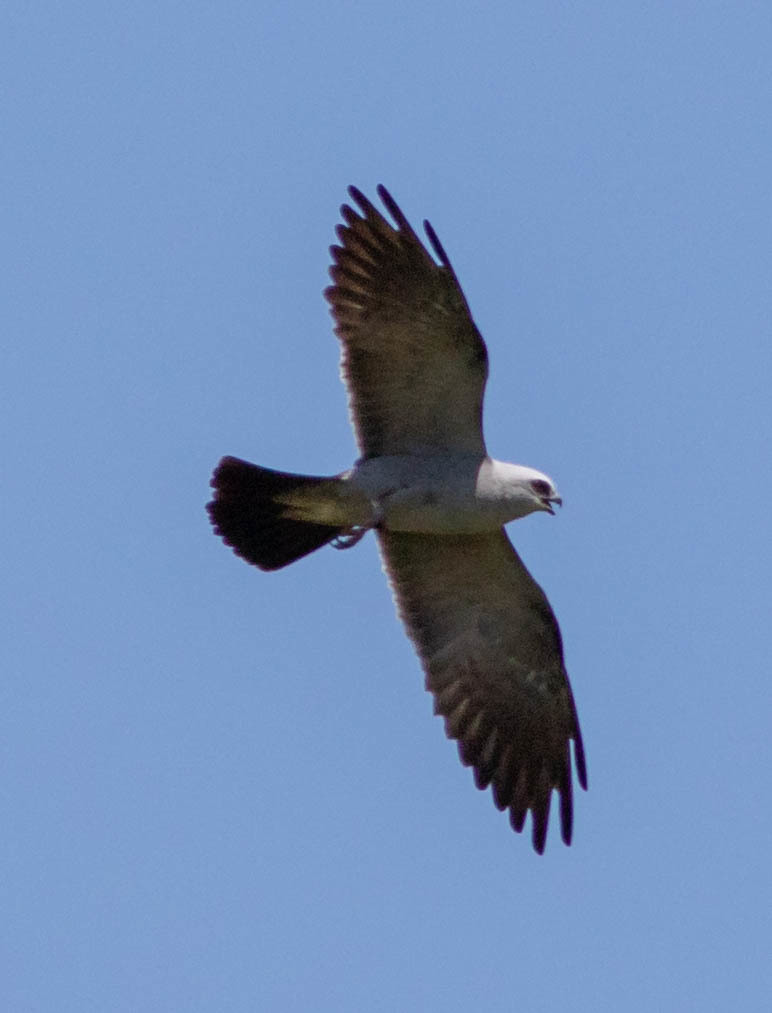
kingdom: Animalia
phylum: Chordata
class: Aves
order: Accipitriformes
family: Accipitridae
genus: Ictinia
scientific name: Ictinia mississippiensis
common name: Mississippi kite
